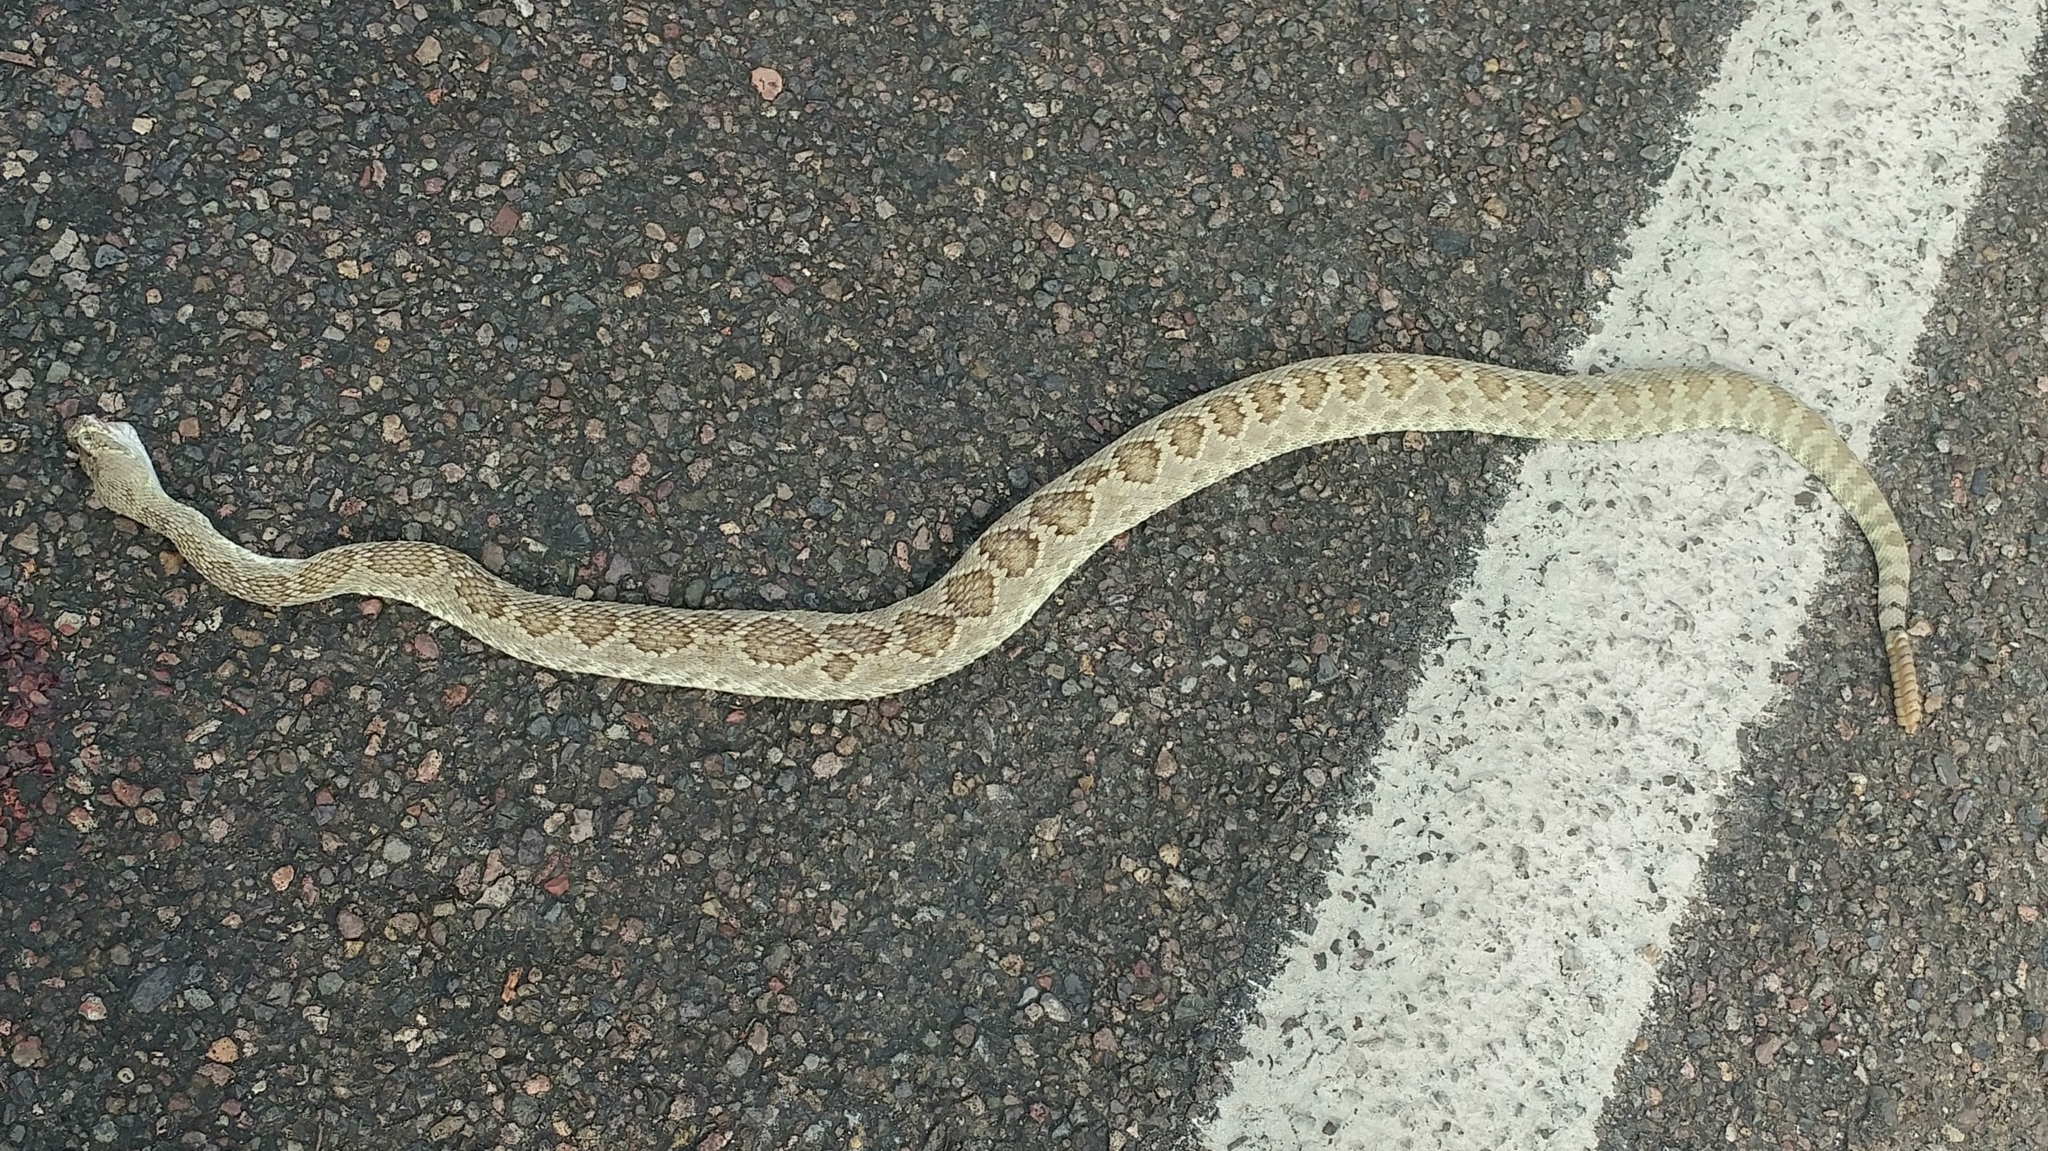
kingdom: Animalia
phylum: Chordata
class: Squamata
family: Viperidae
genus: Crotalus
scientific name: Crotalus scutulatus
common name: Scutulatus
